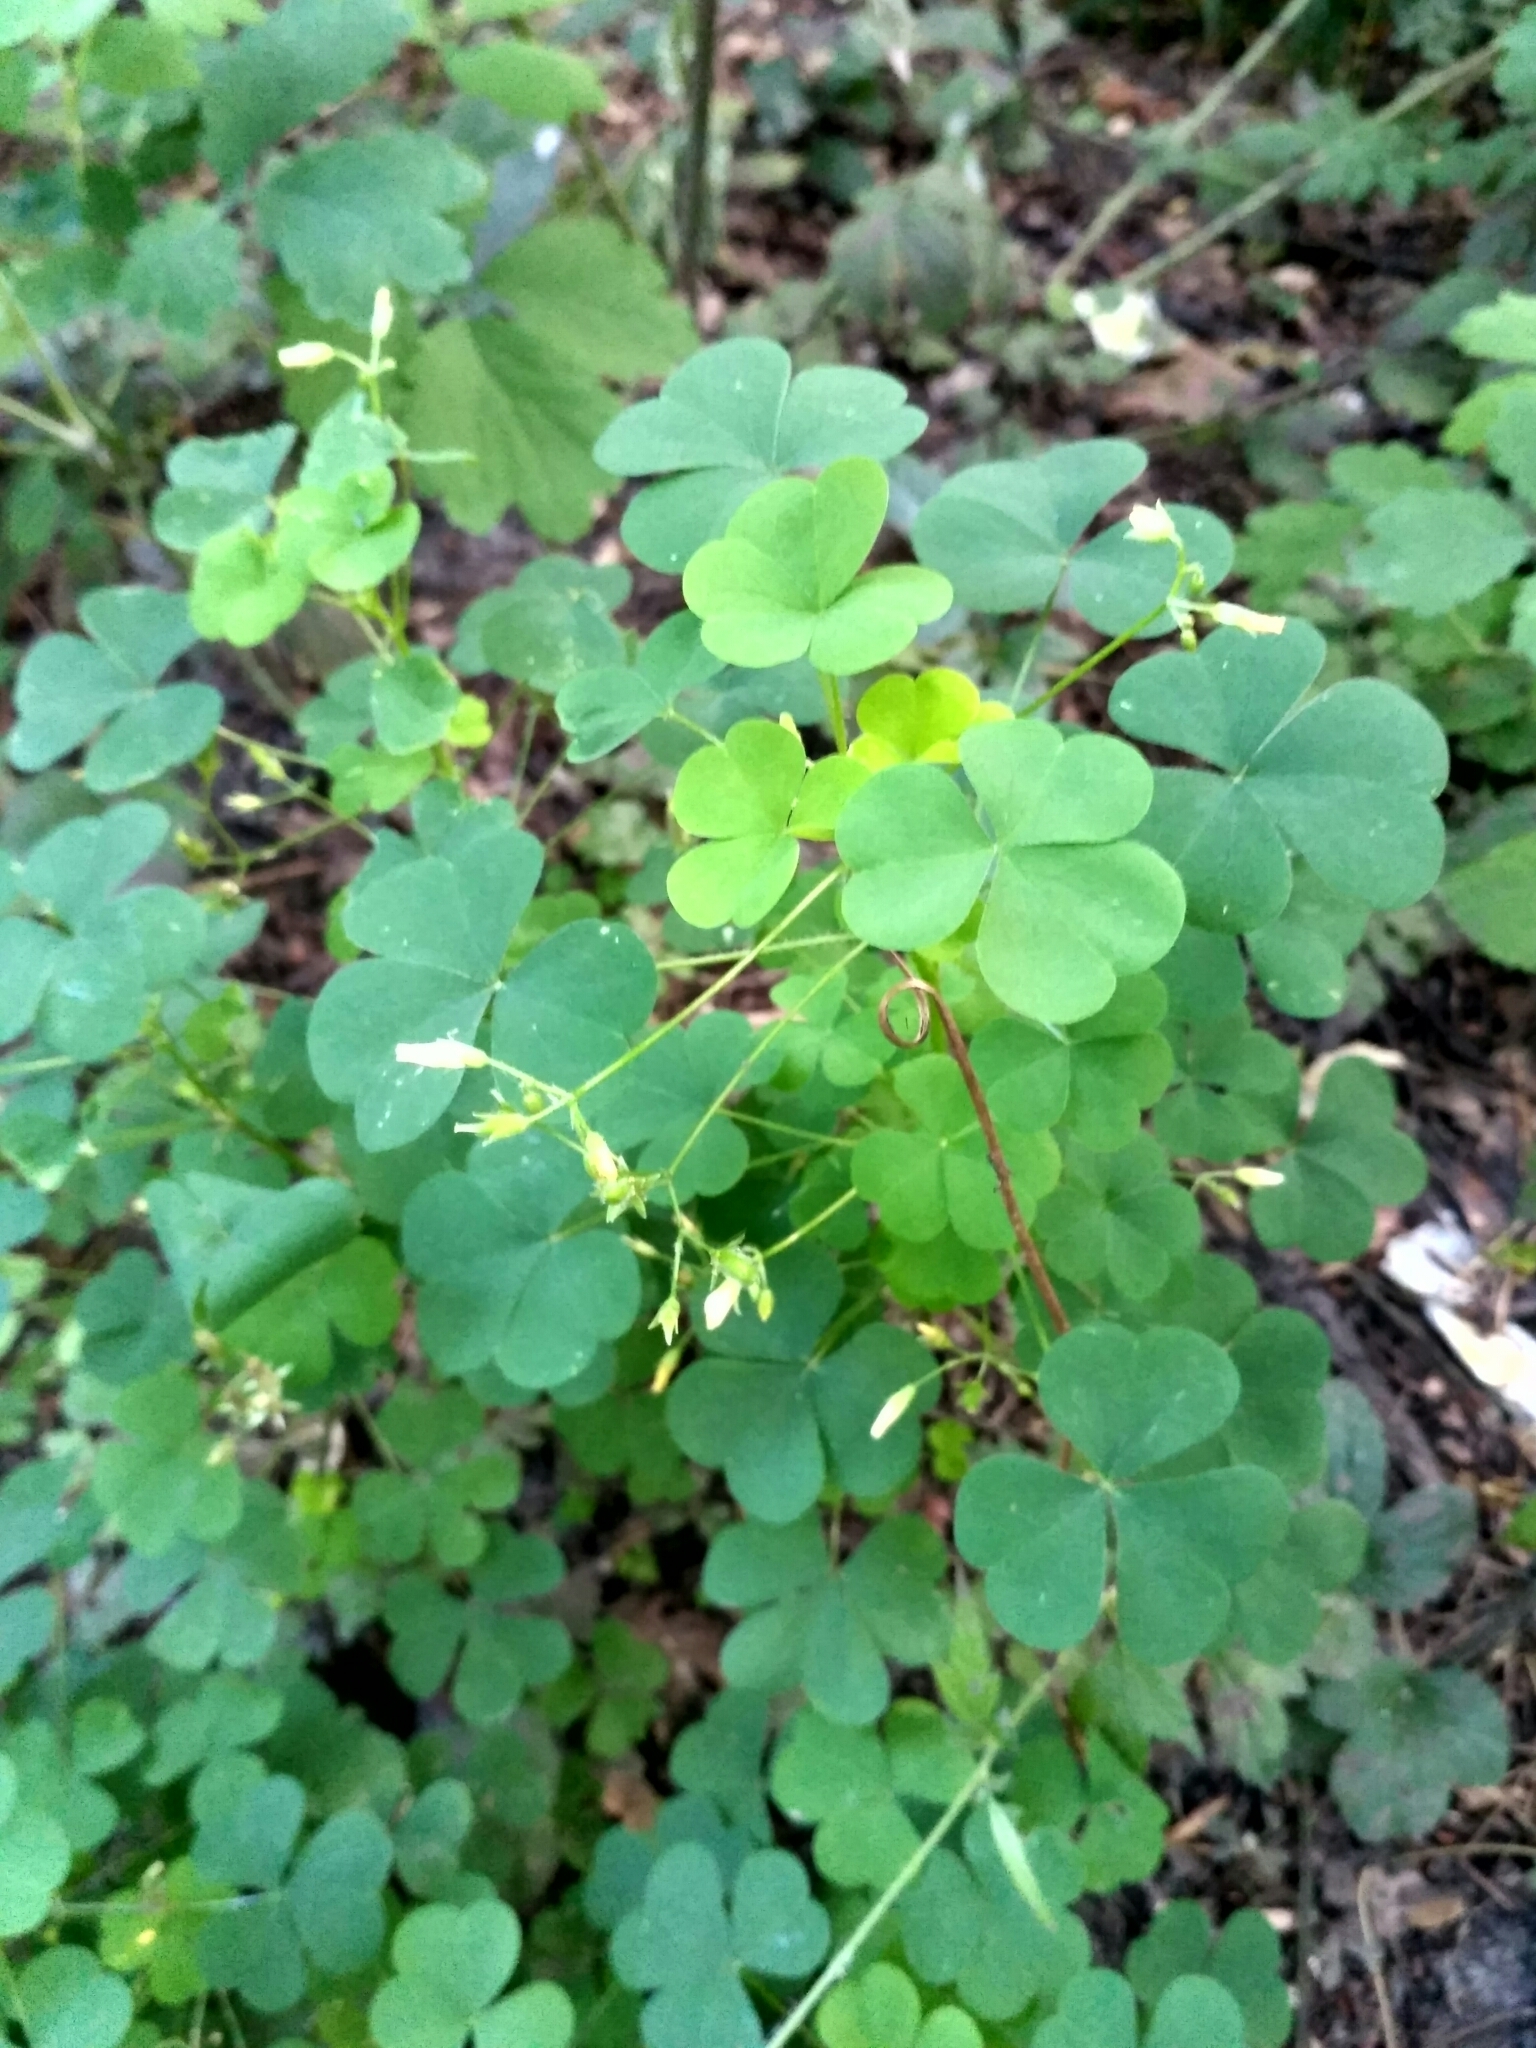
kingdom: Plantae
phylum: Tracheophyta
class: Magnoliopsida
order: Oxalidales
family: Oxalidaceae
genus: Oxalis
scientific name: Oxalis stricta
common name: Upright yellow-sorrel
